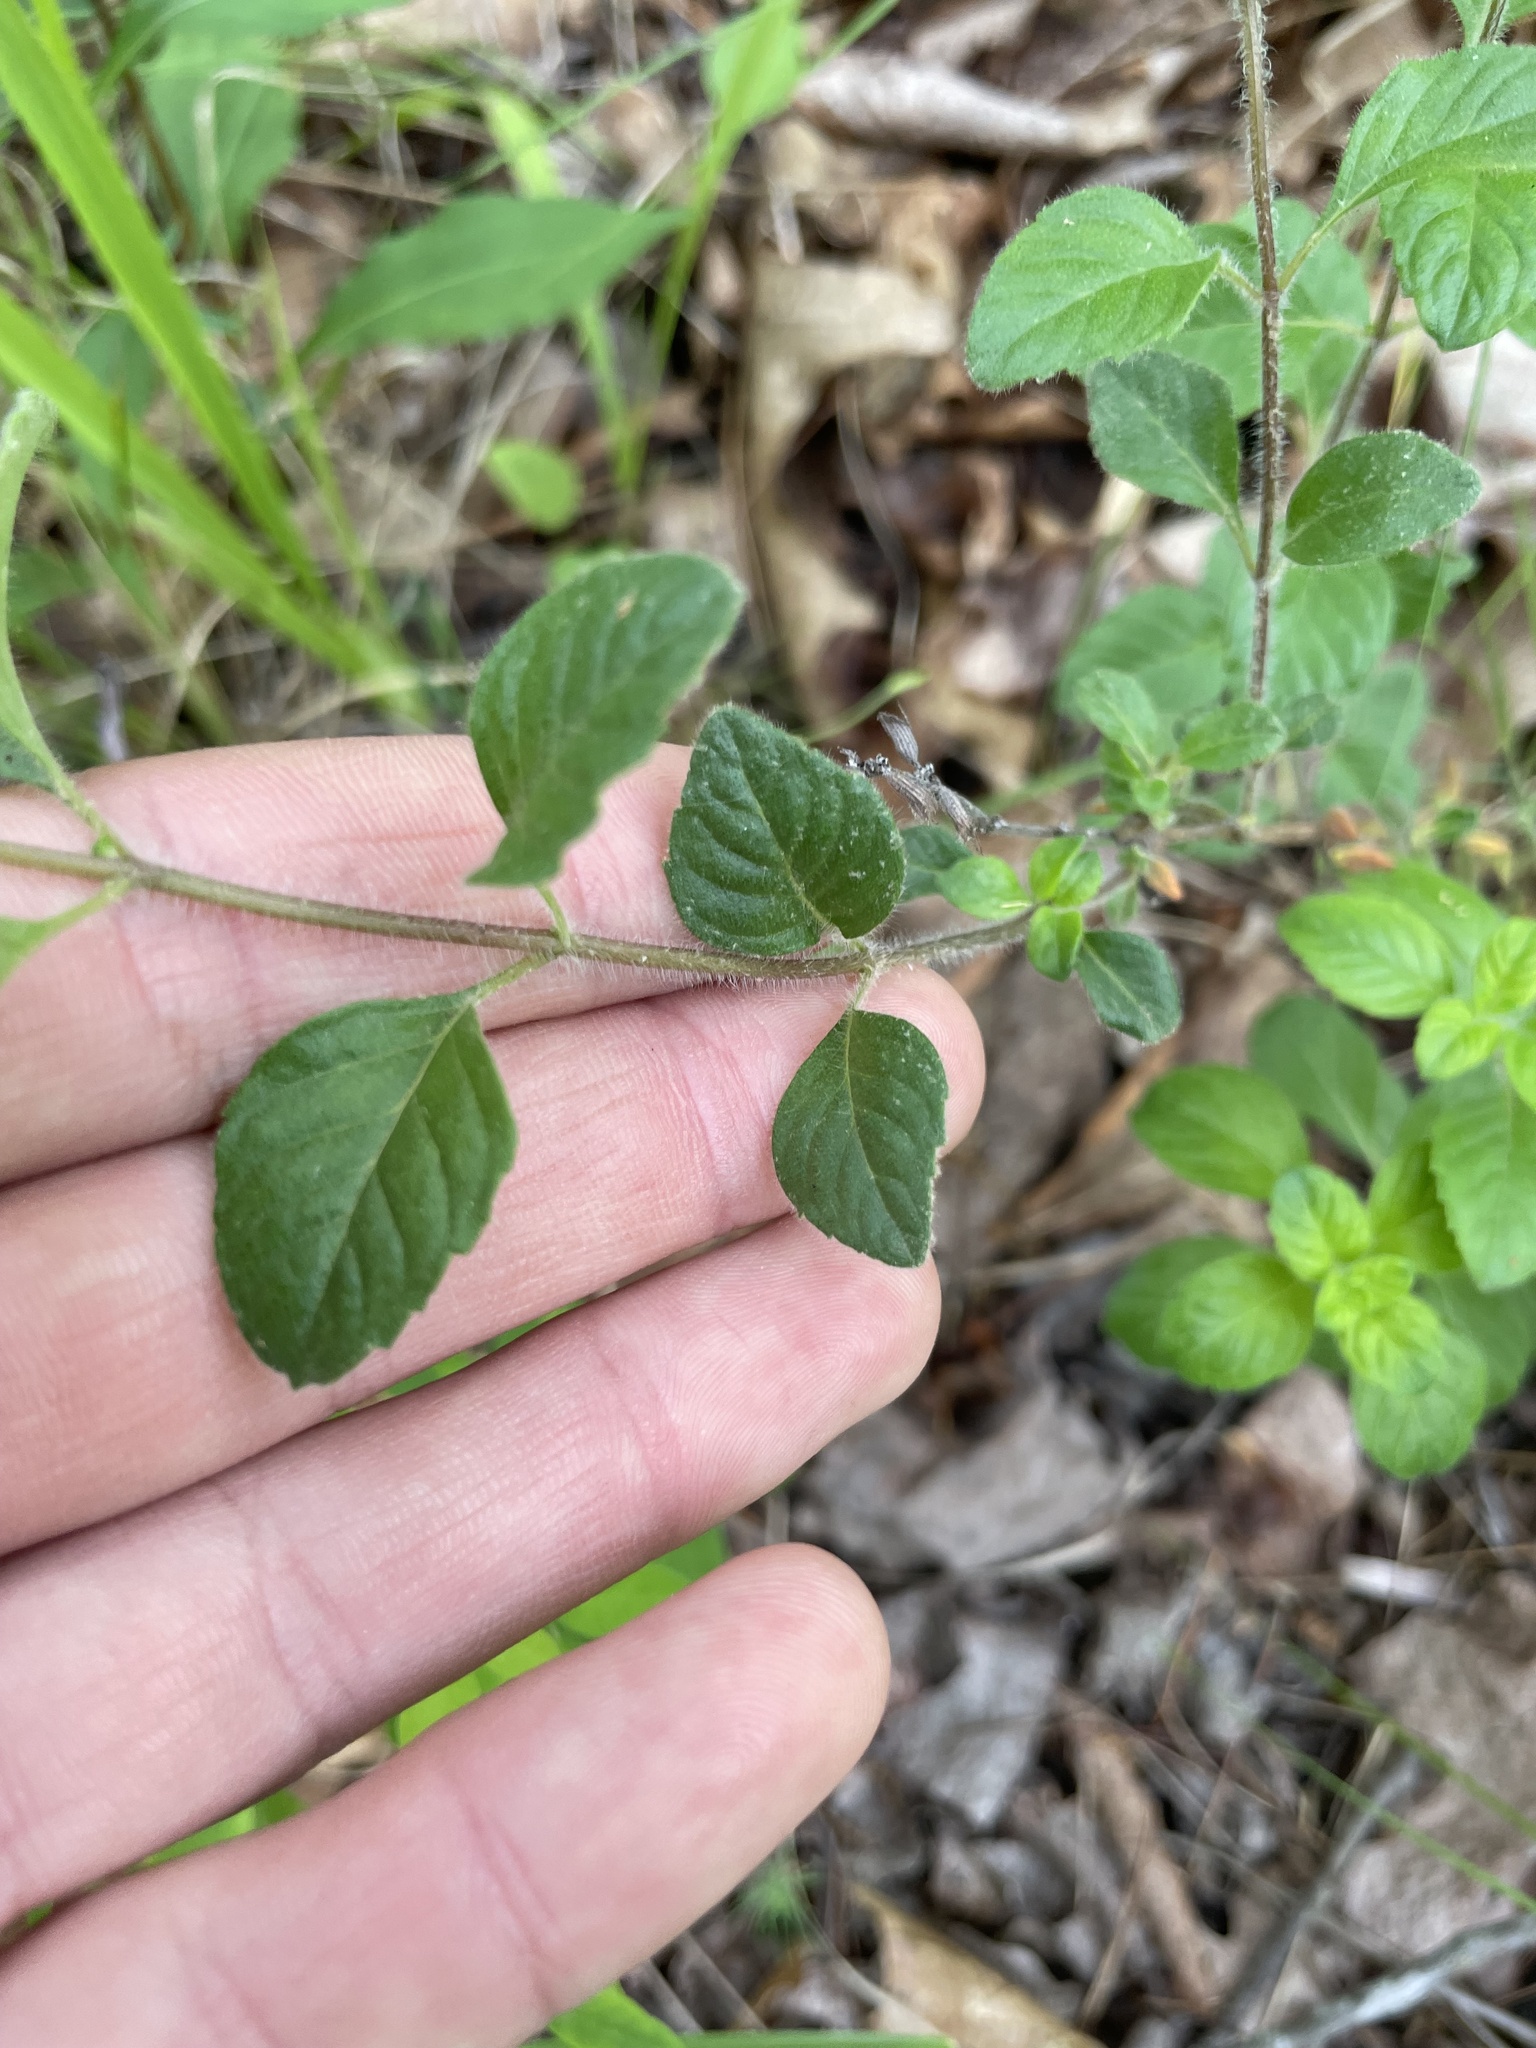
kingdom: Plantae
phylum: Tracheophyta
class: Magnoliopsida
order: Lamiales
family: Lamiaceae
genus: Clinopodium
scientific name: Clinopodium talladeganum
